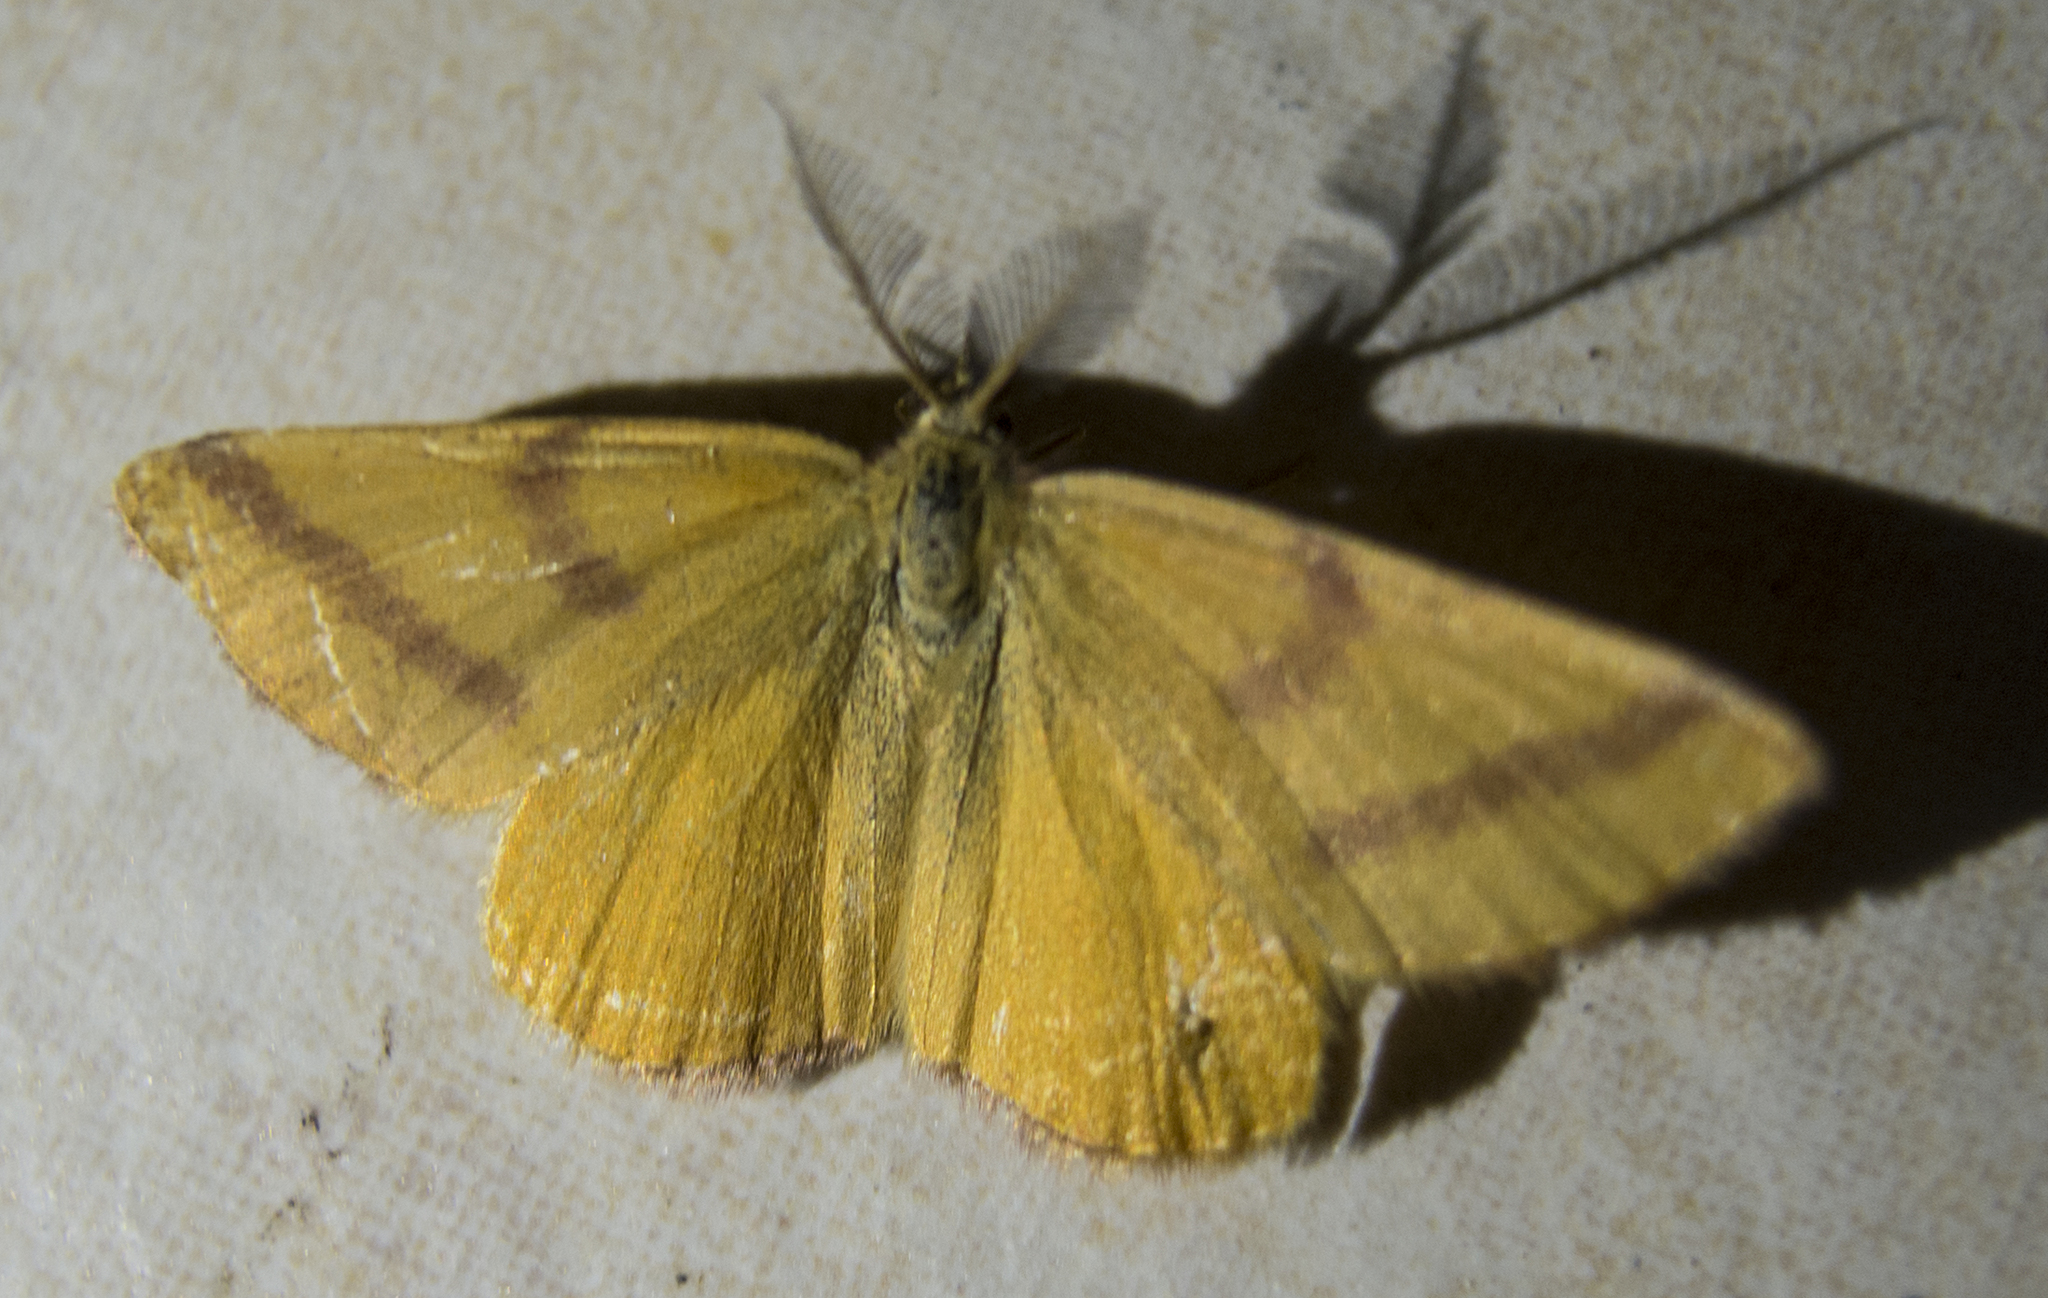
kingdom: Animalia
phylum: Arthropoda
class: Insecta
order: Lepidoptera
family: Geometridae
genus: Lythria
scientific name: Lythria purpuraria
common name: Purple-barred yellow
